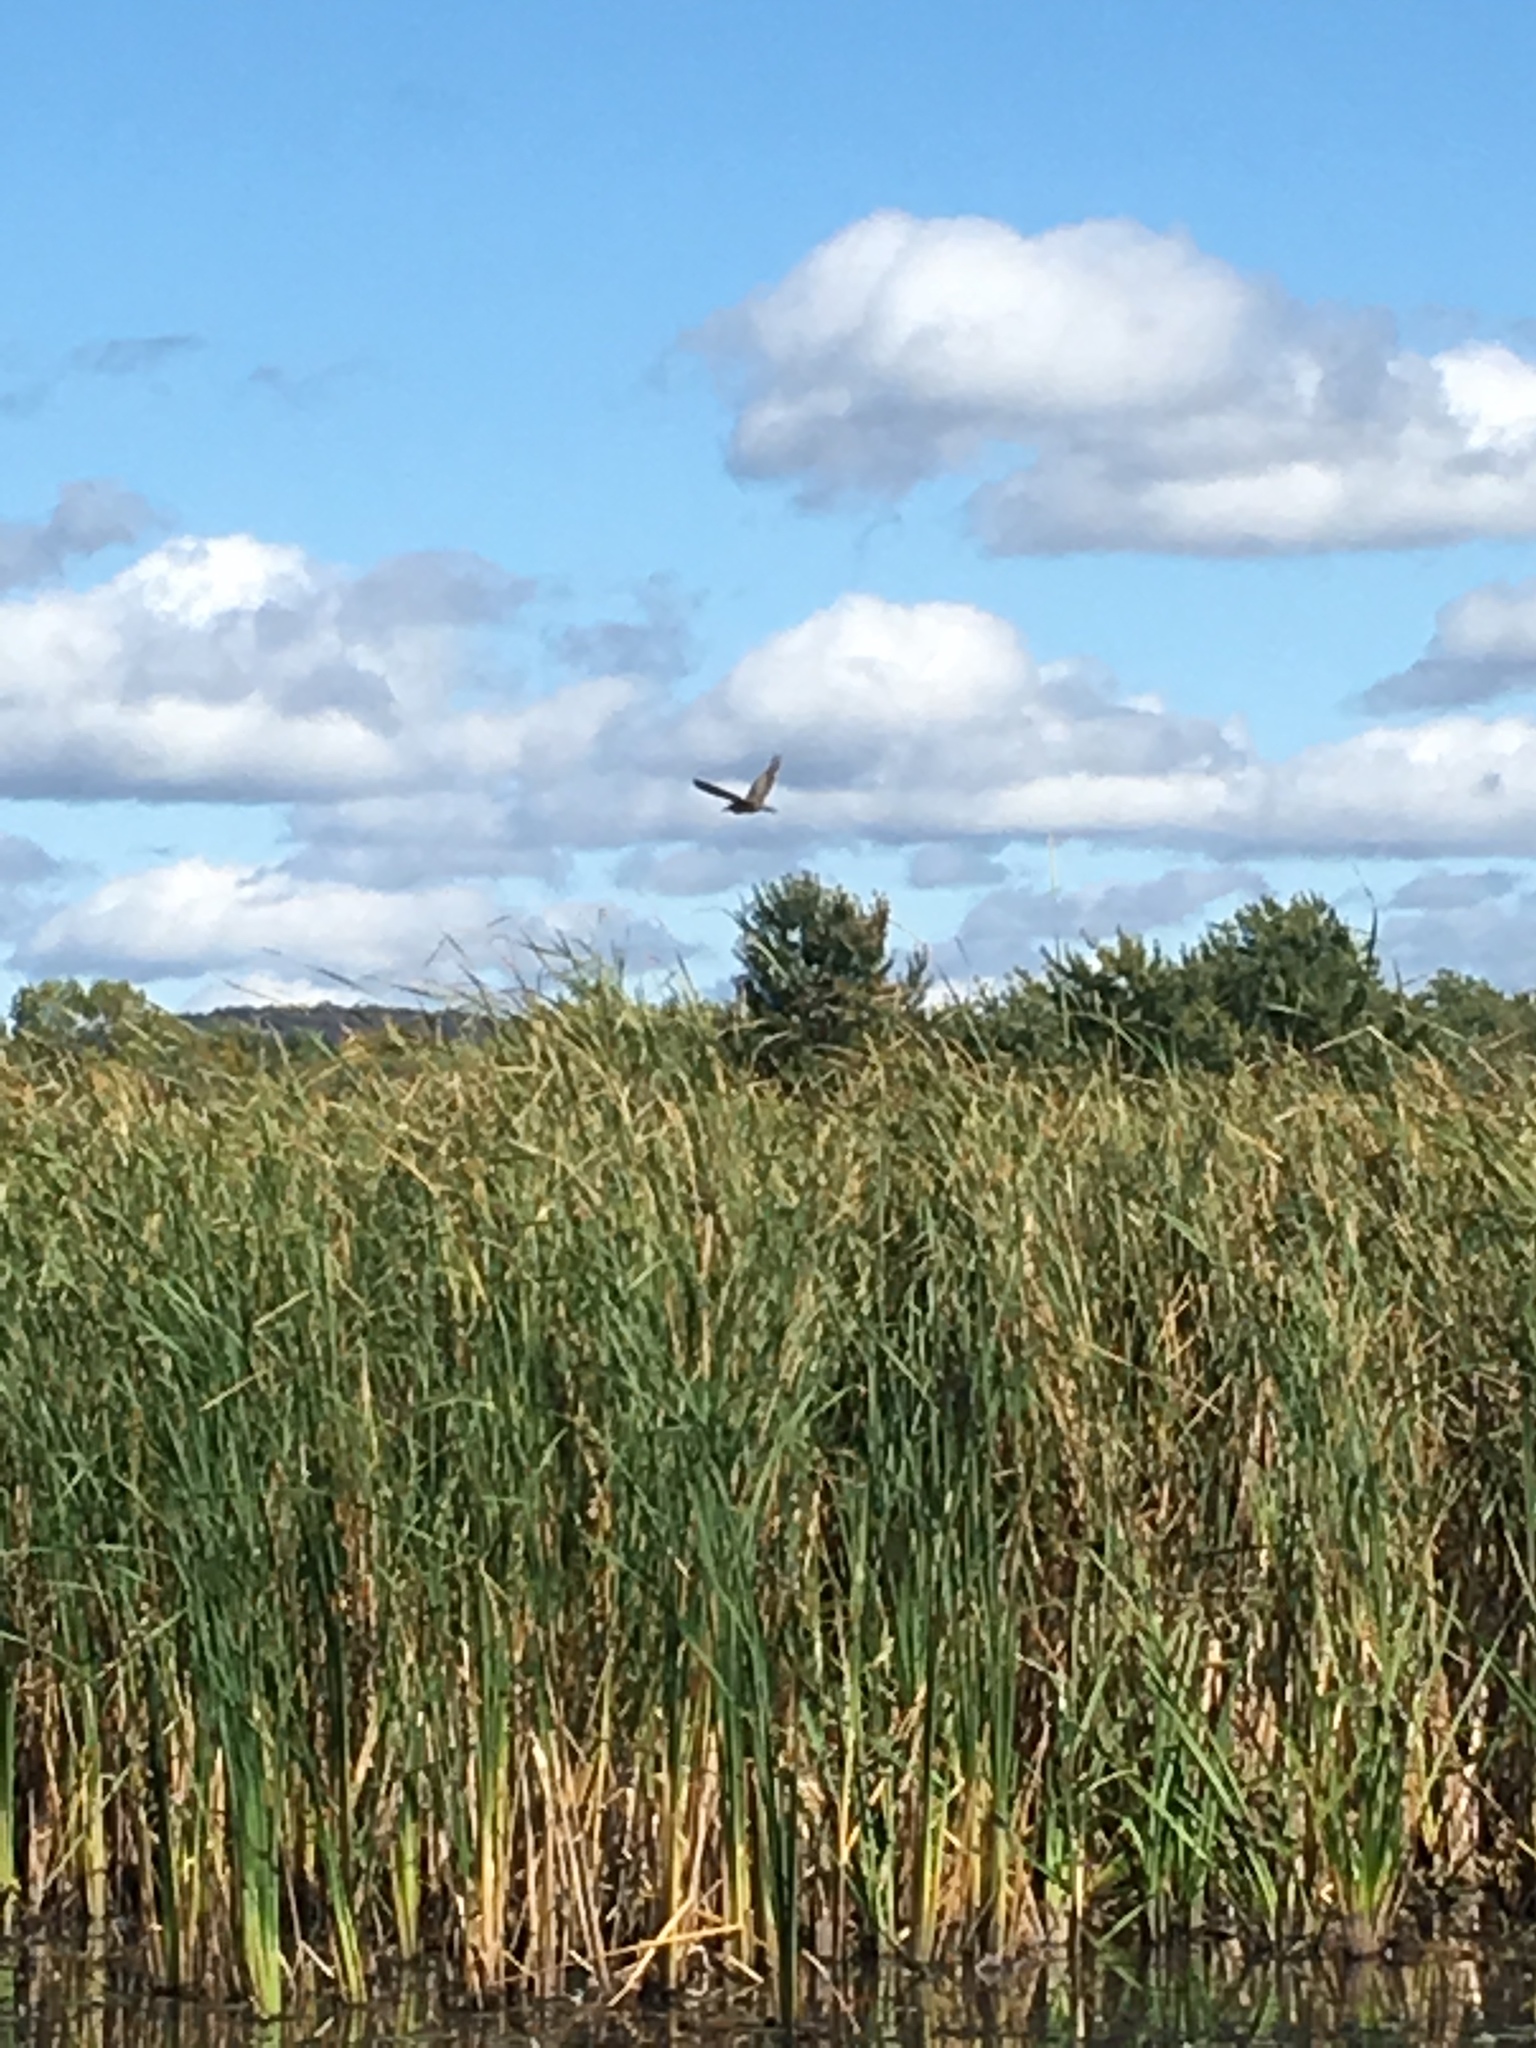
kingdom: Animalia
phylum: Chordata
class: Aves
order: Pelecaniformes
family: Ardeidae
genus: Botaurus
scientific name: Botaurus lentiginosus
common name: American bittern
